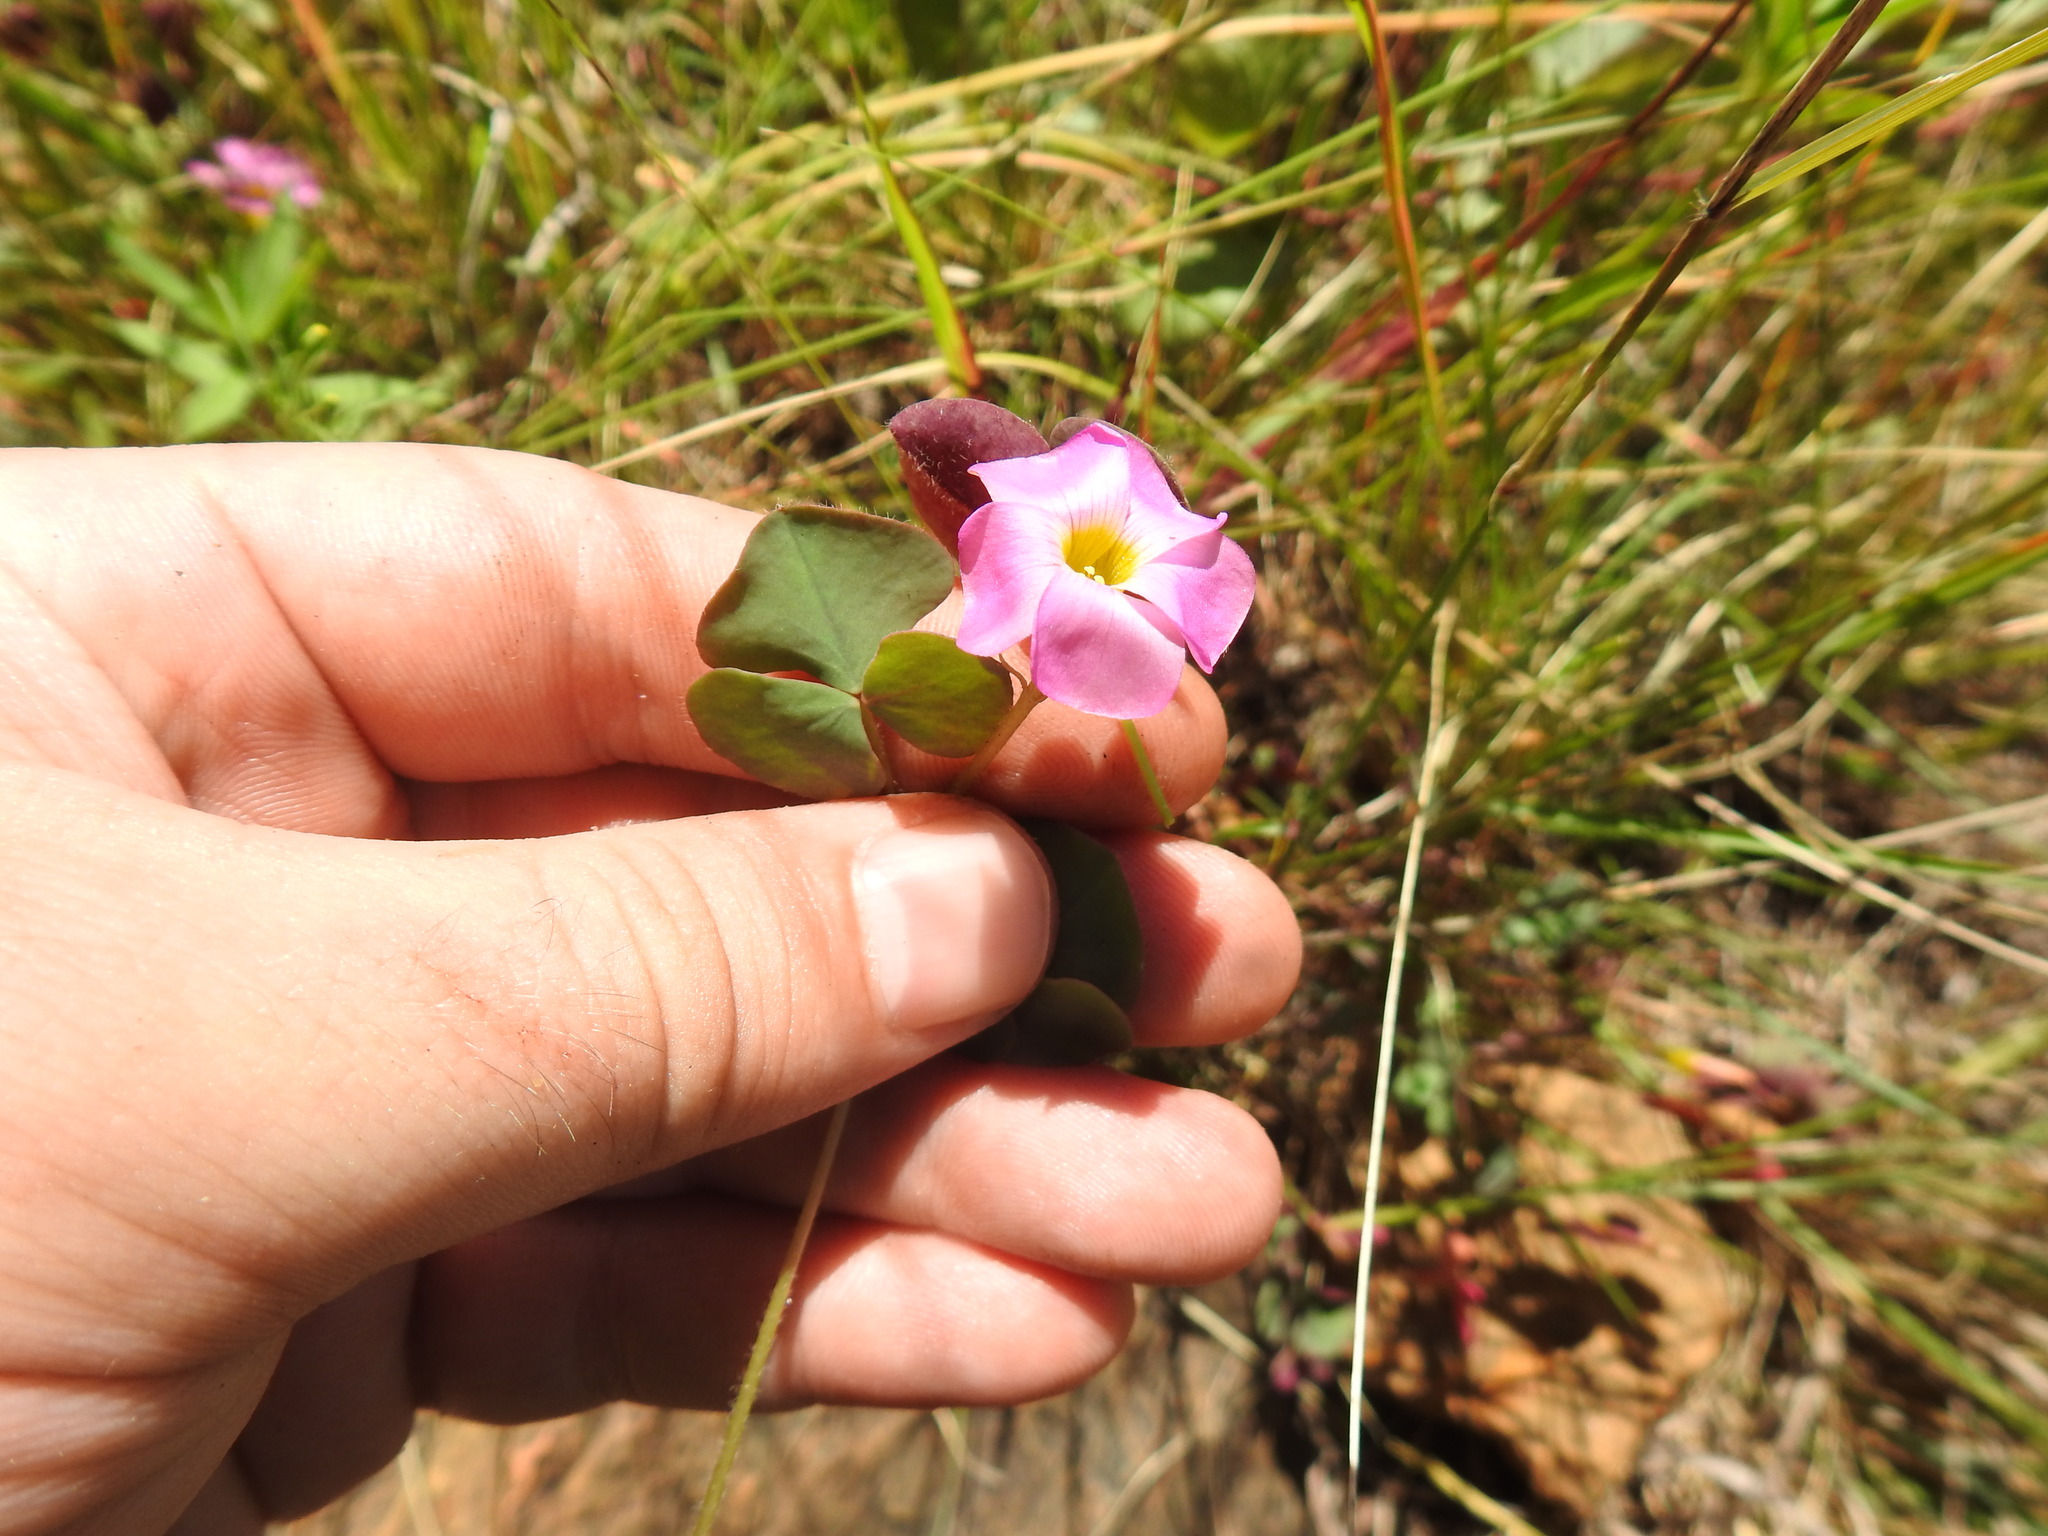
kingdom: Plantae
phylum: Tracheophyta
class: Magnoliopsida
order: Oxalidales
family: Oxalidaceae
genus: Oxalis
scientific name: Oxalis obliquifolia
